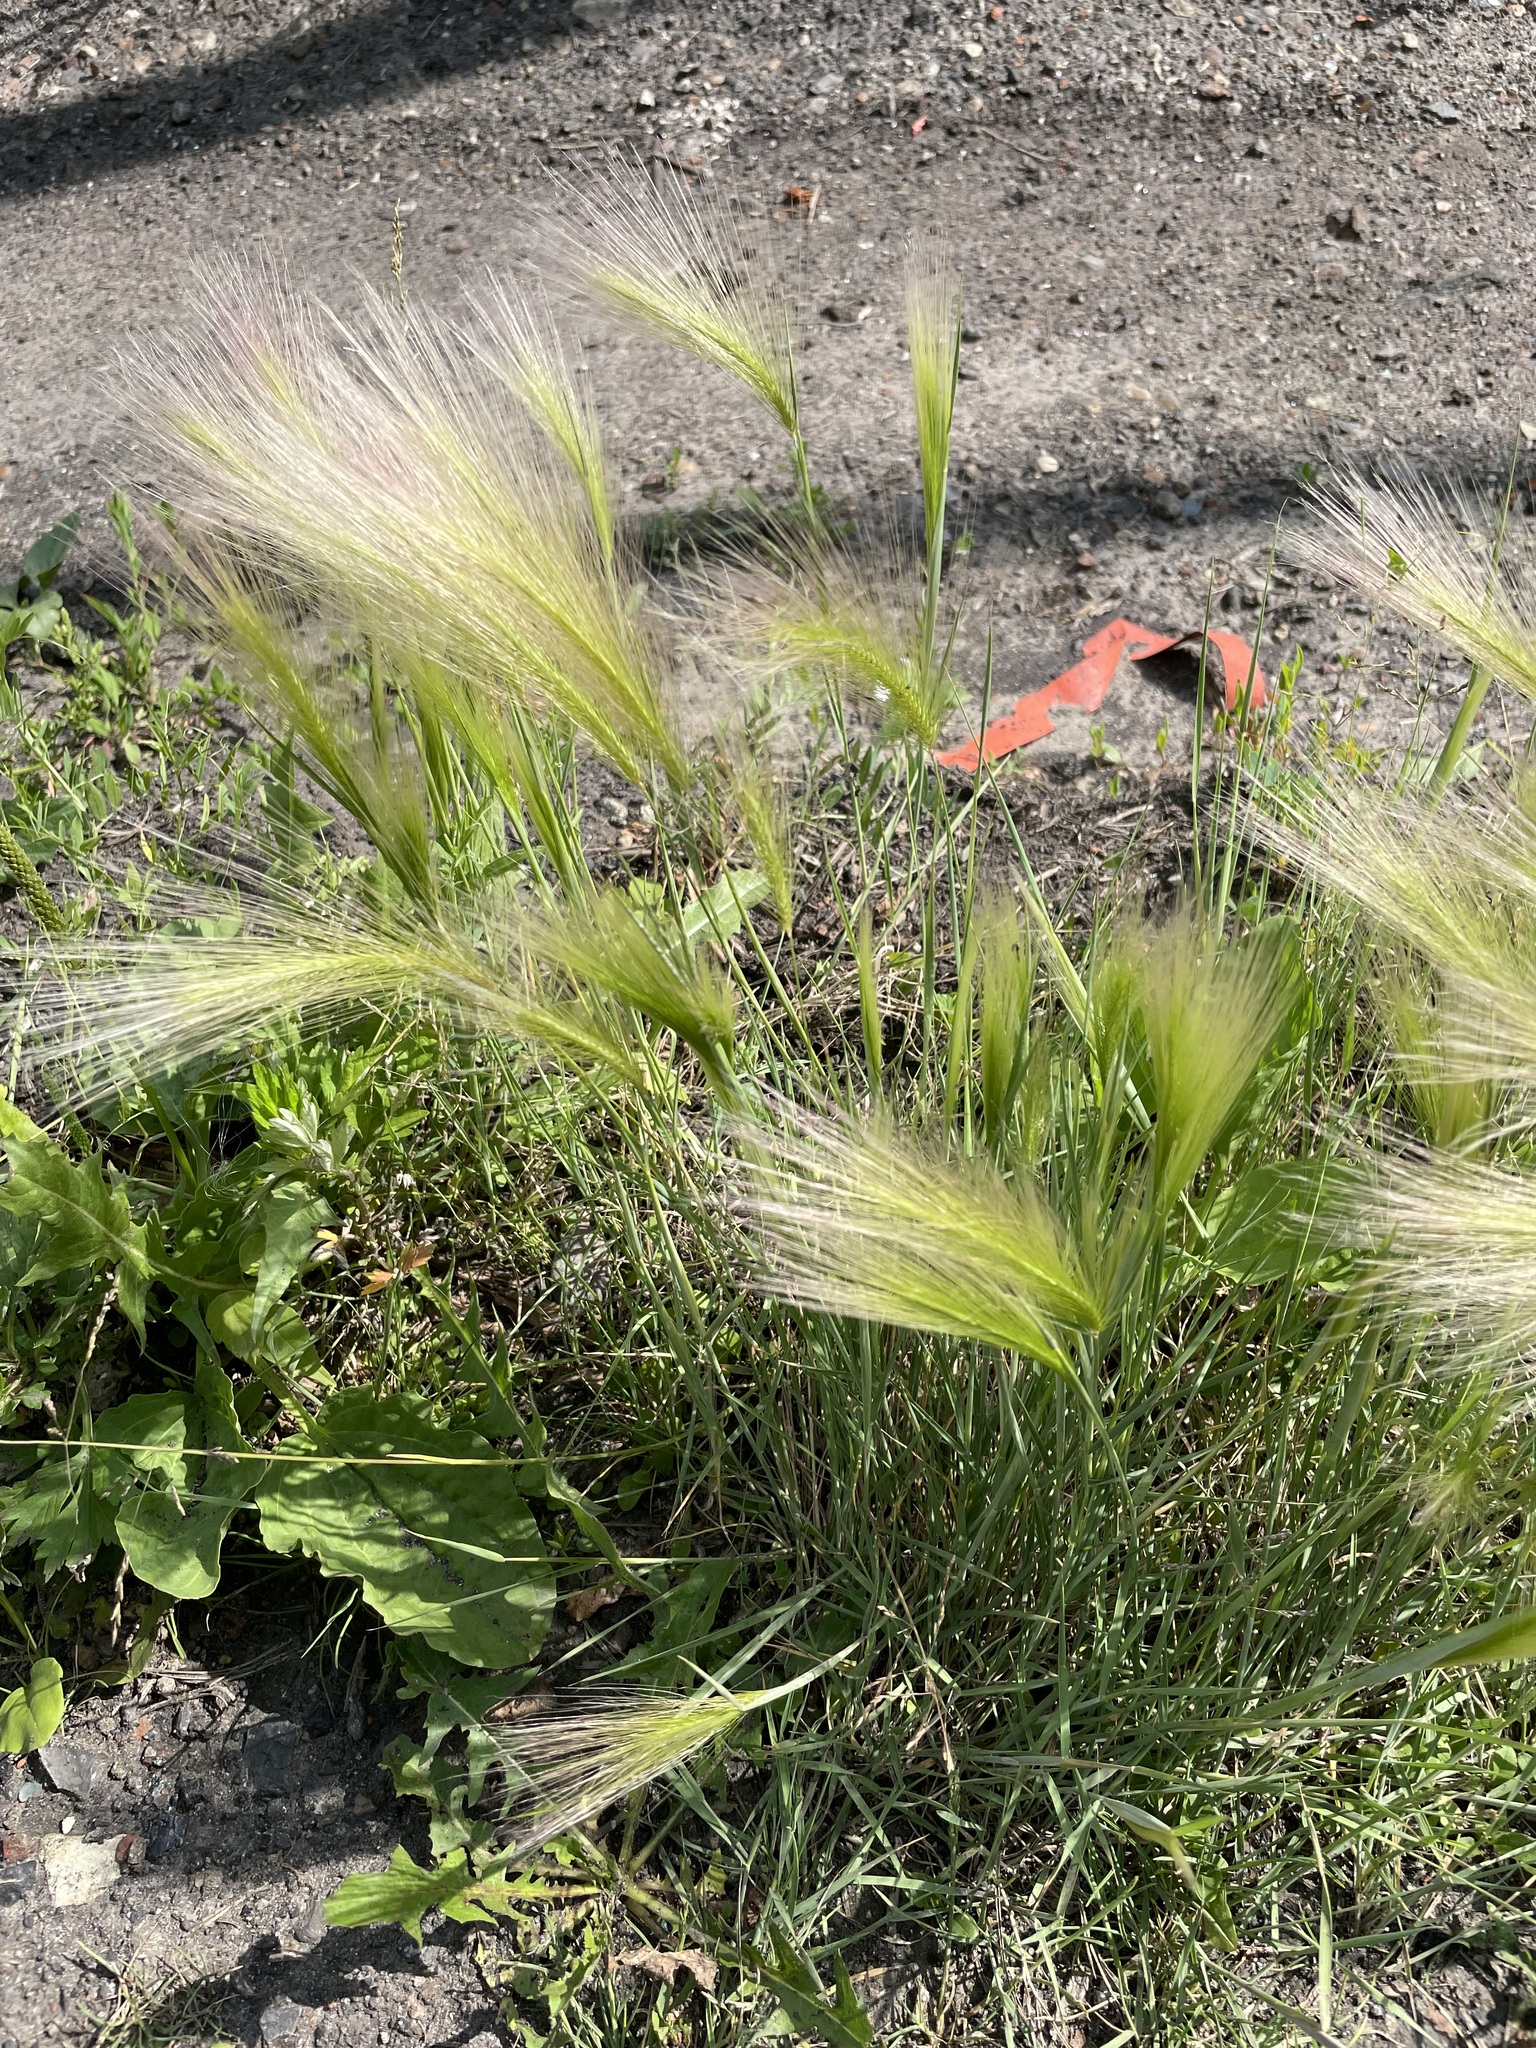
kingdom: Plantae
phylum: Tracheophyta
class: Liliopsida
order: Poales
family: Poaceae
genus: Hordeum
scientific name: Hordeum jubatum
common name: Foxtail barley
